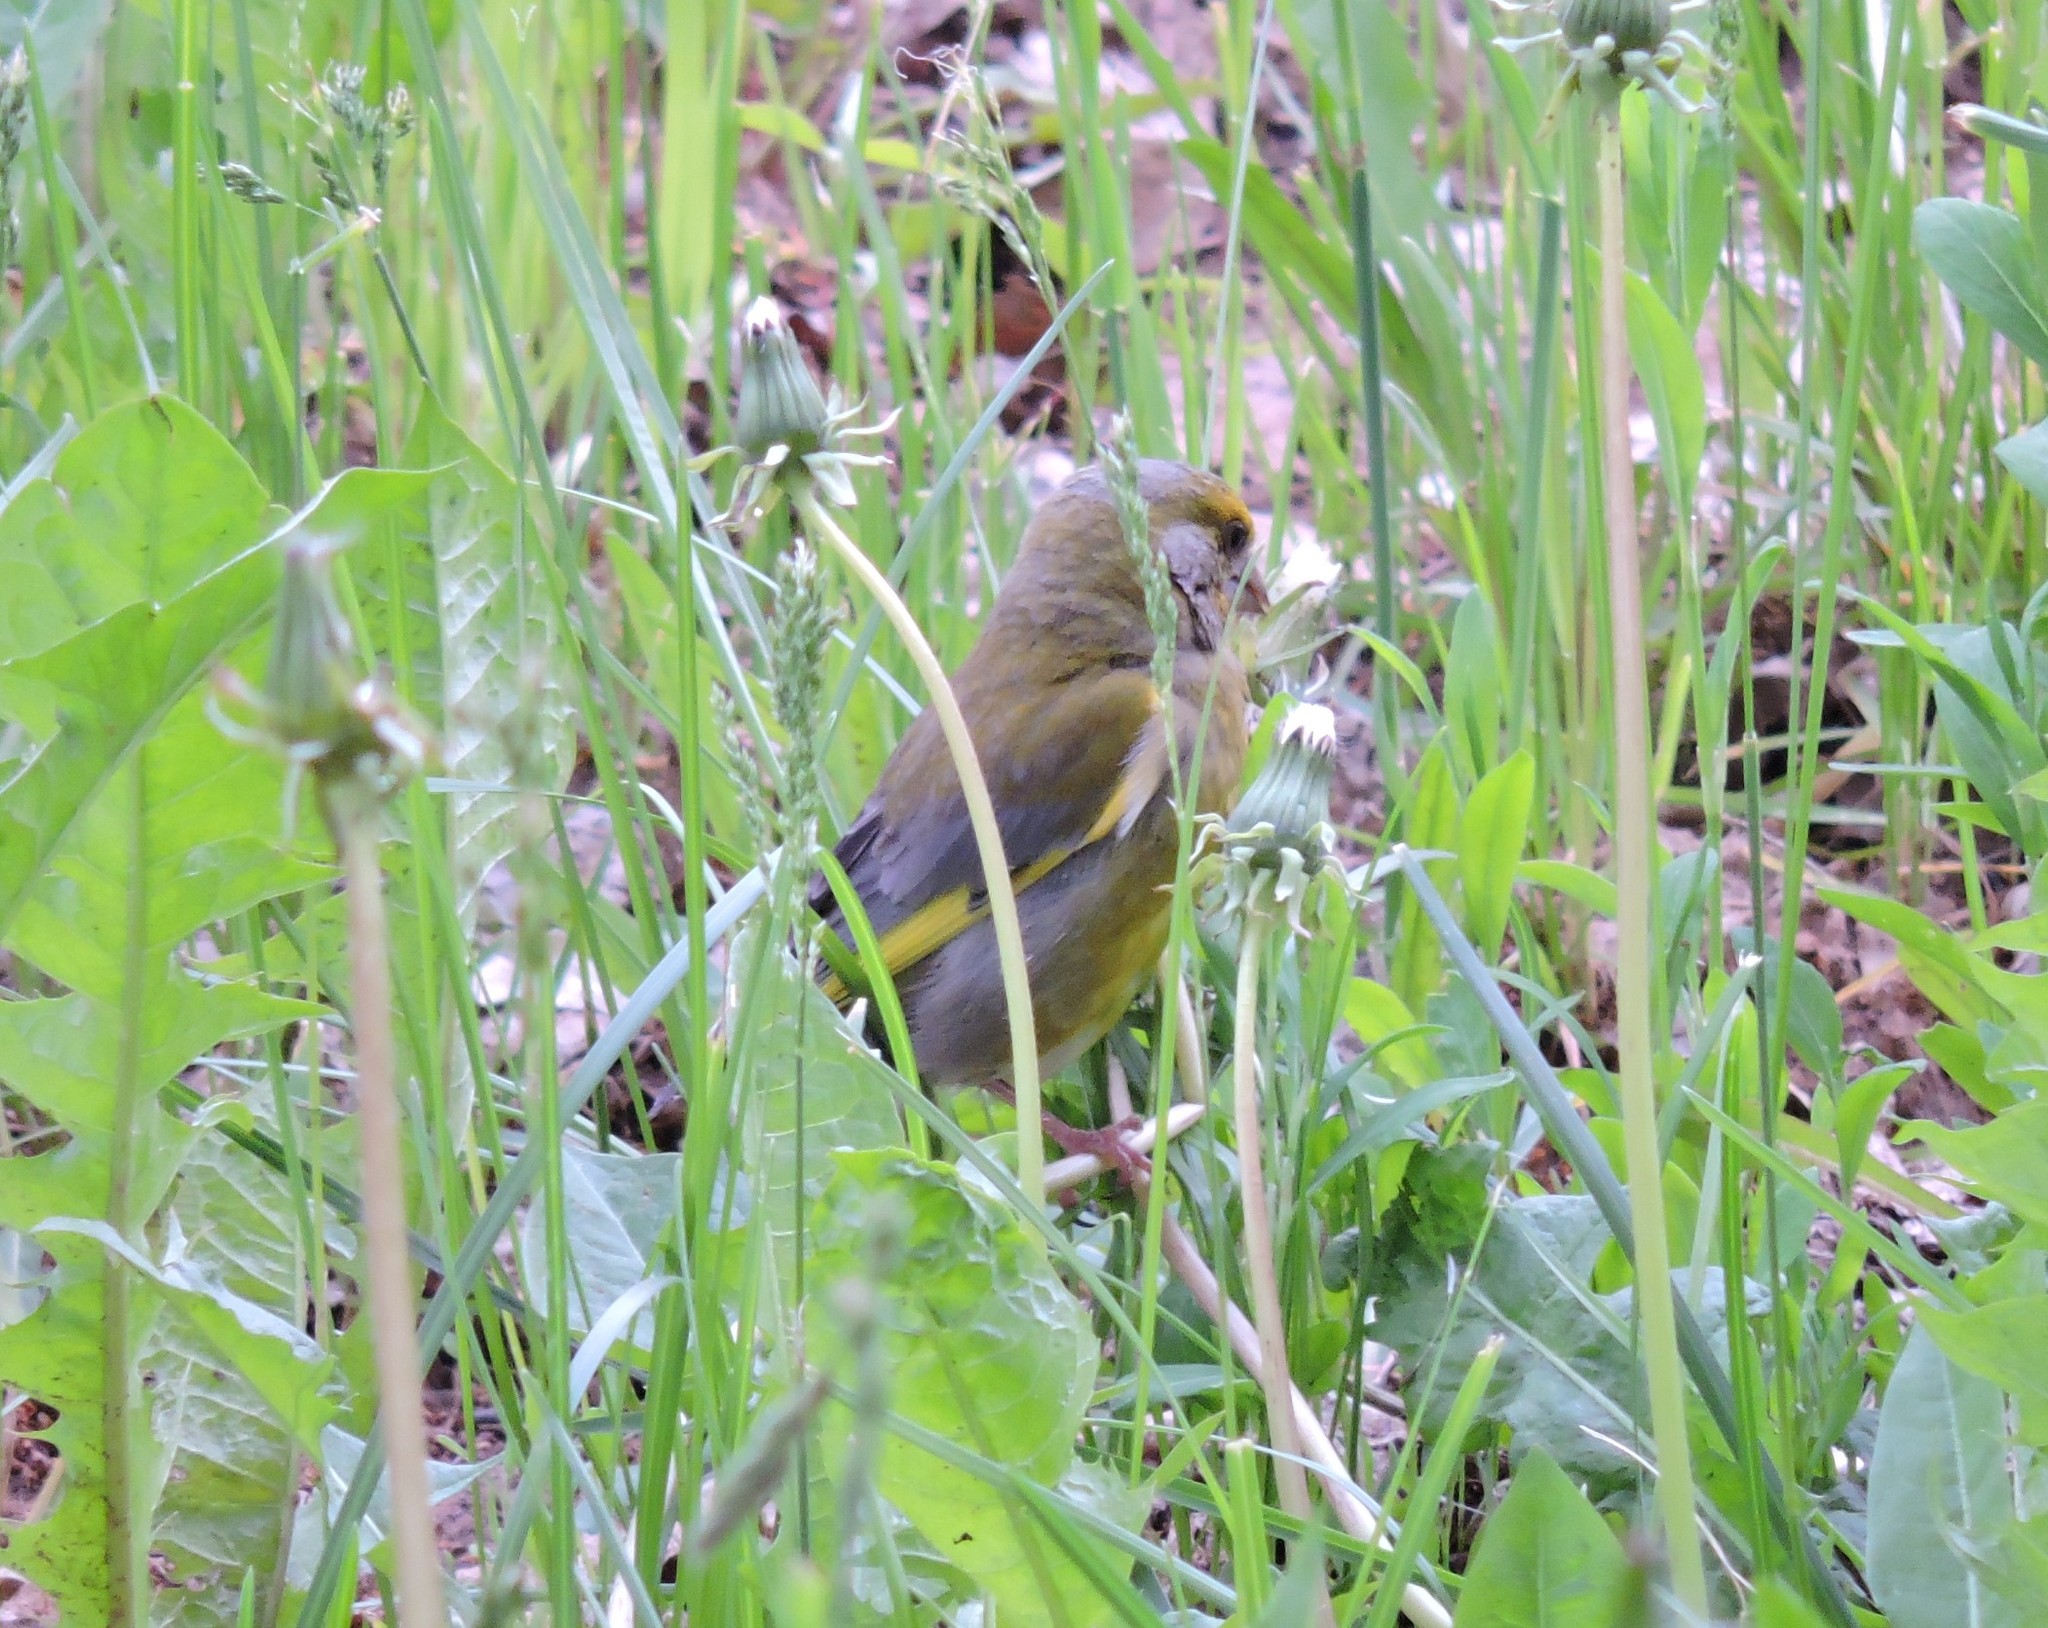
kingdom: Plantae
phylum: Tracheophyta
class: Liliopsida
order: Poales
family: Poaceae
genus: Chloris
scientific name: Chloris chloris
